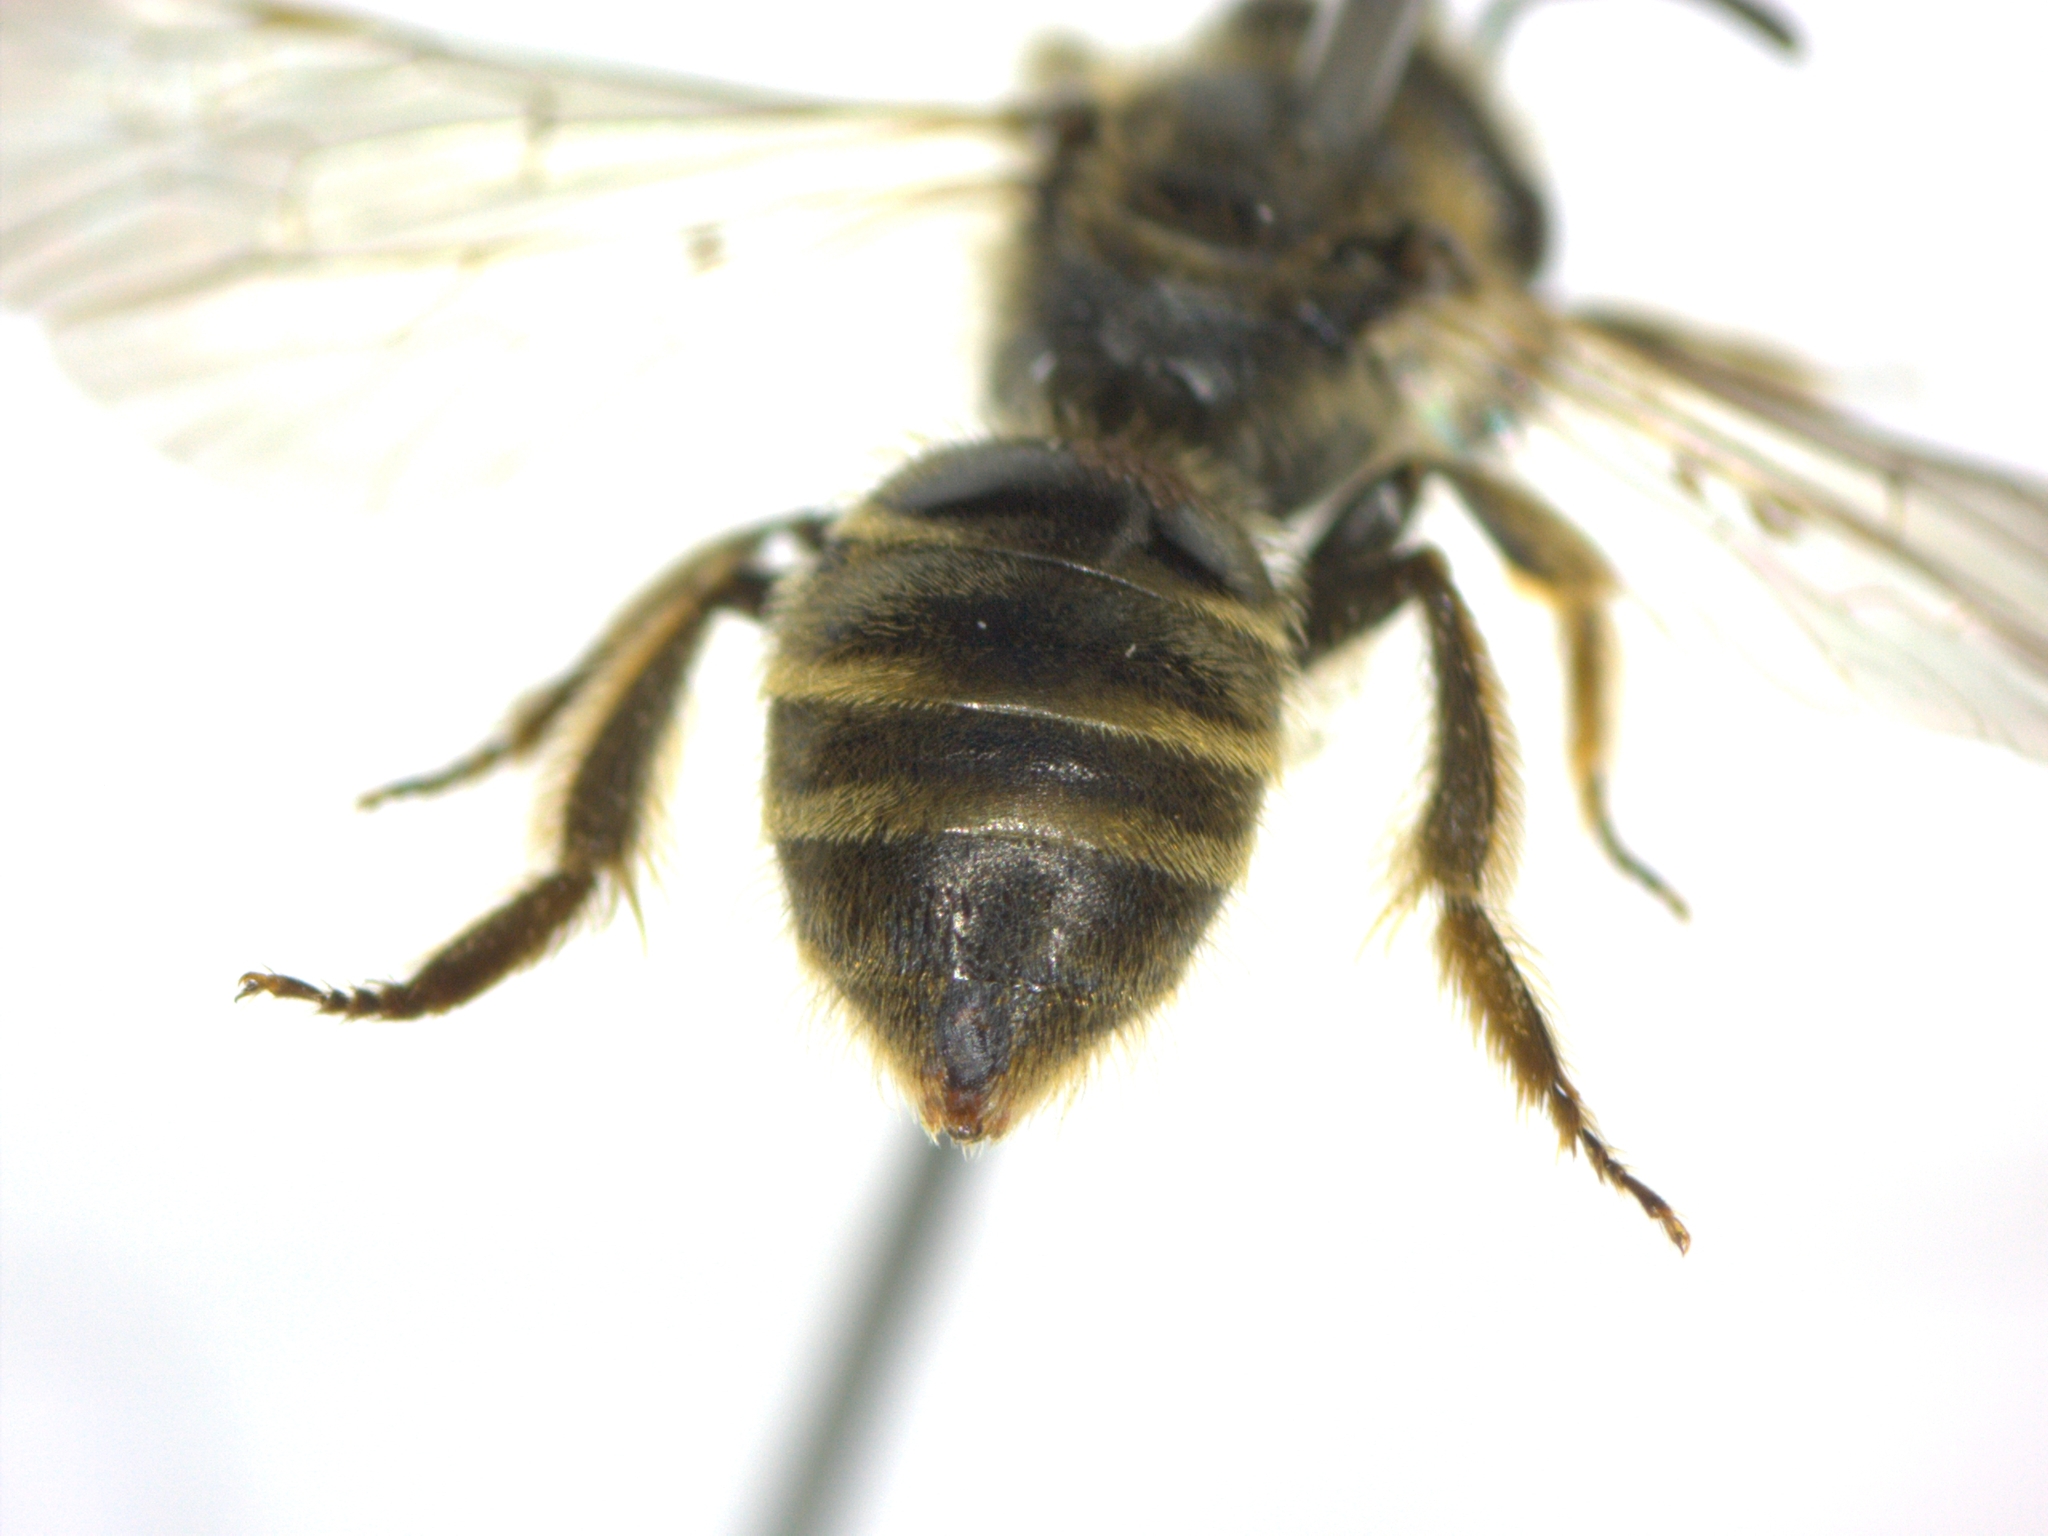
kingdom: Animalia
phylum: Arthropoda
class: Insecta
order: Hymenoptera
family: Halictidae
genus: Lasioglossum
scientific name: Lasioglossum malachurum
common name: Sharp-collared furrow bee
